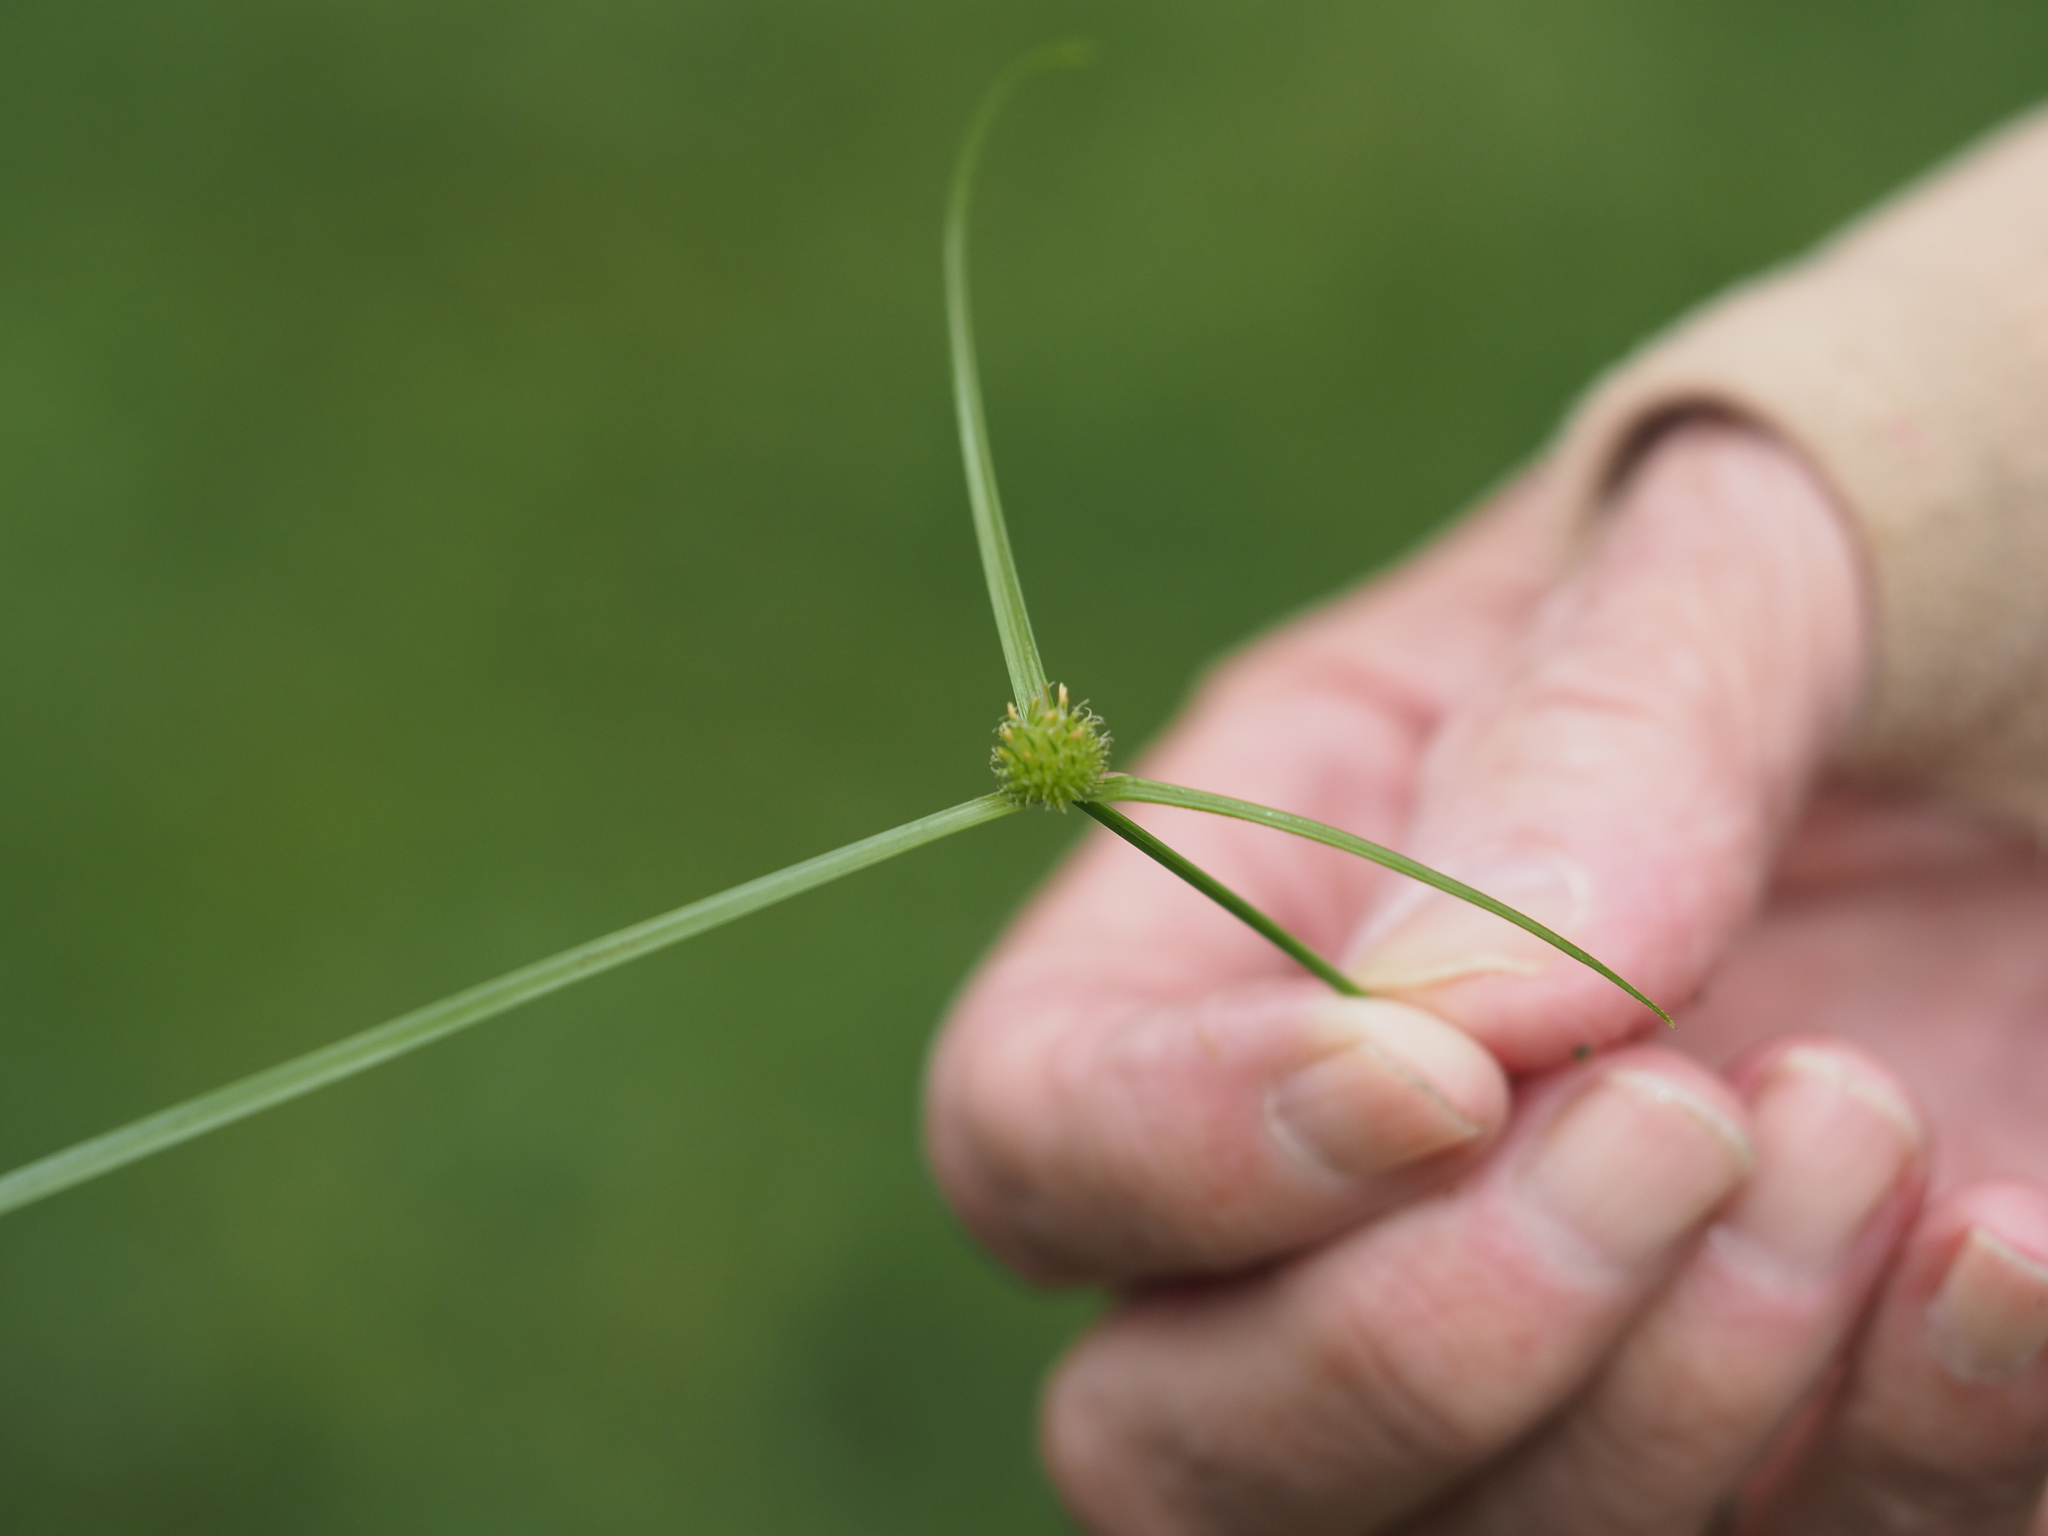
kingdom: Plantae
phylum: Tracheophyta
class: Liliopsida
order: Poales
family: Cyperaceae
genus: Cyperus
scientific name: Cyperus brevifolius
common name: Globe kyllinga
